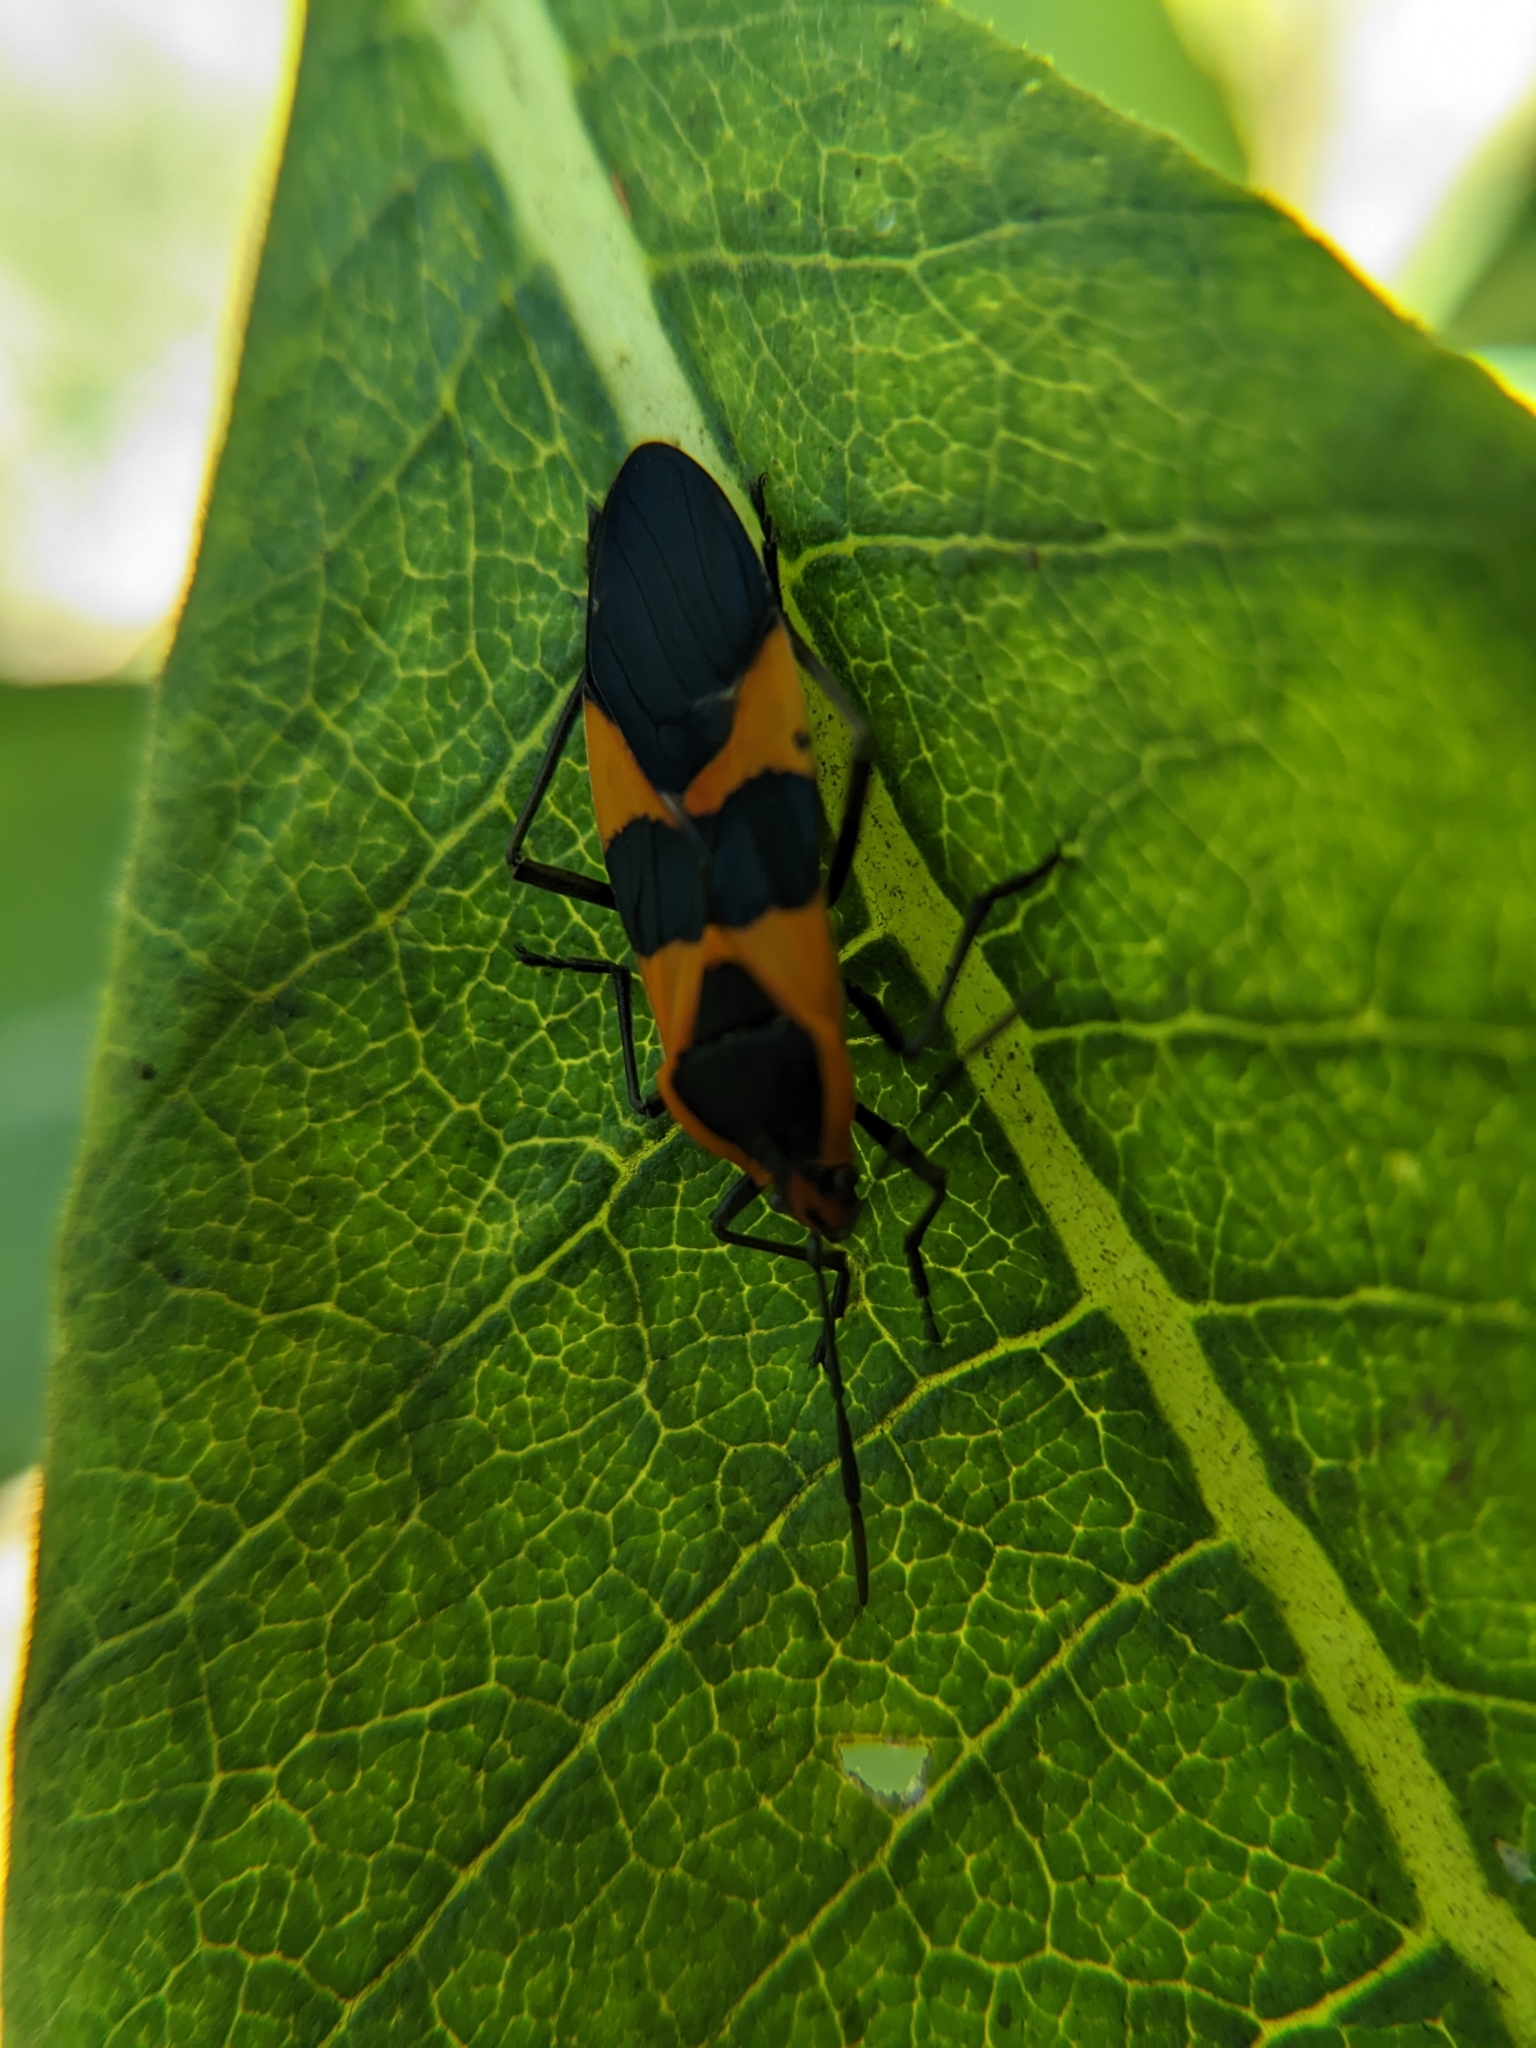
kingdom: Animalia
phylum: Arthropoda
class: Insecta
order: Hemiptera
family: Lygaeidae
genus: Oncopeltus
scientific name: Oncopeltus fasciatus
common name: Large milkweed bug
